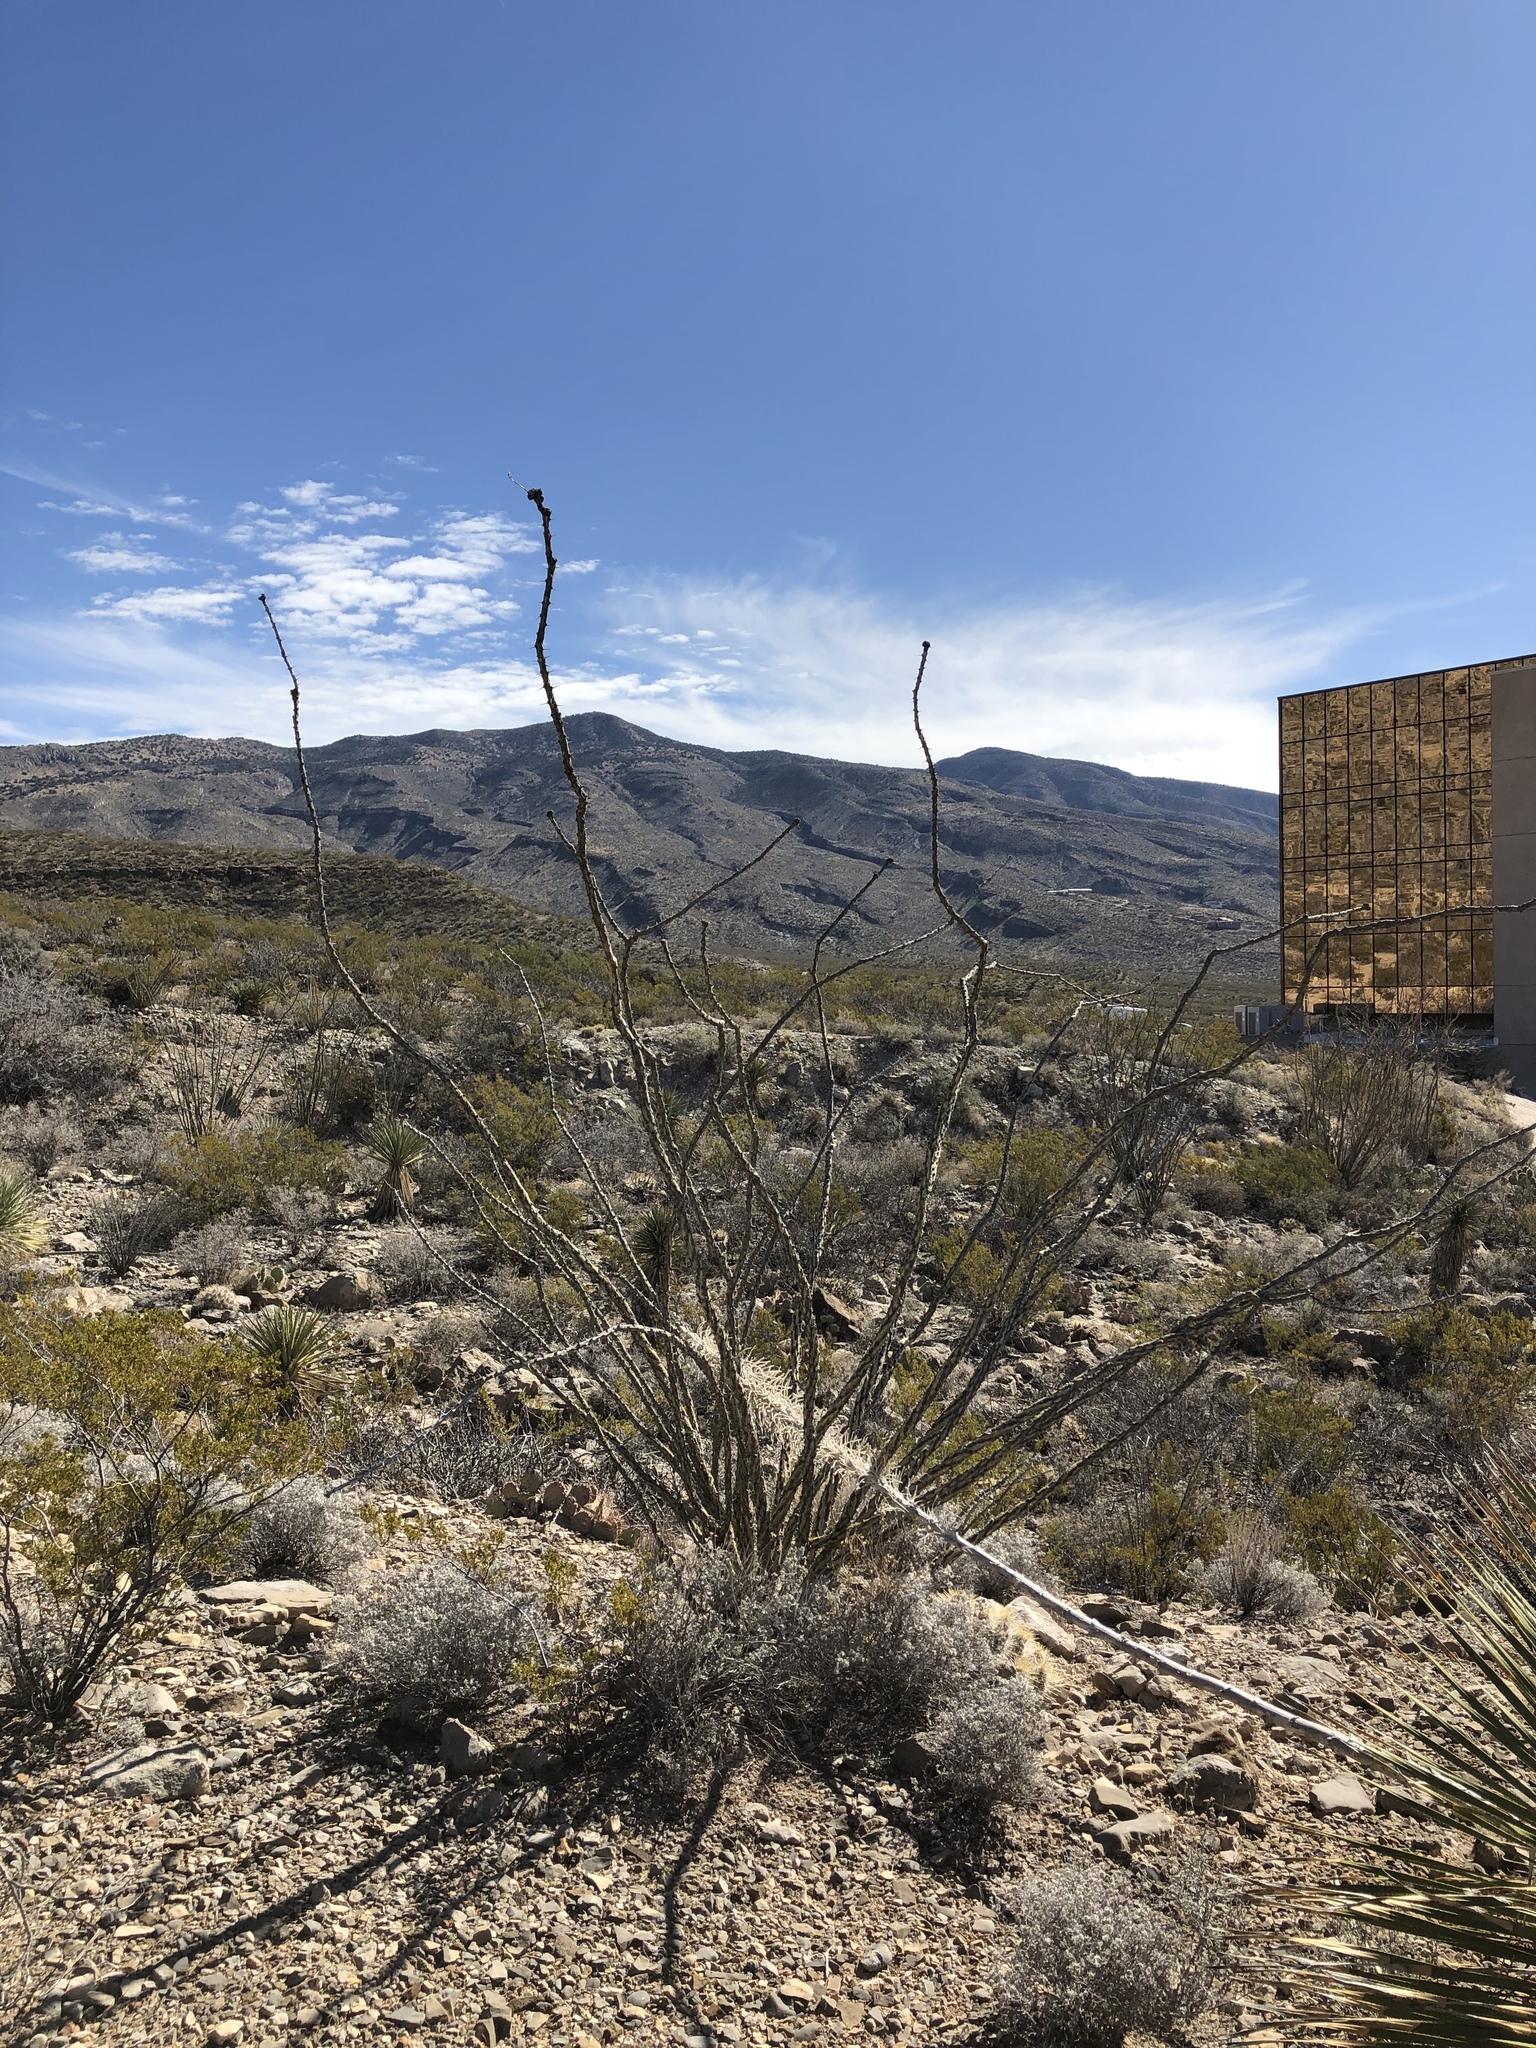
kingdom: Plantae
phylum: Tracheophyta
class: Magnoliopsida
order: Ericales
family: Fouquieriaceae
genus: Fouquieria
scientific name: Fouquieria splendens
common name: Vine-cactus
